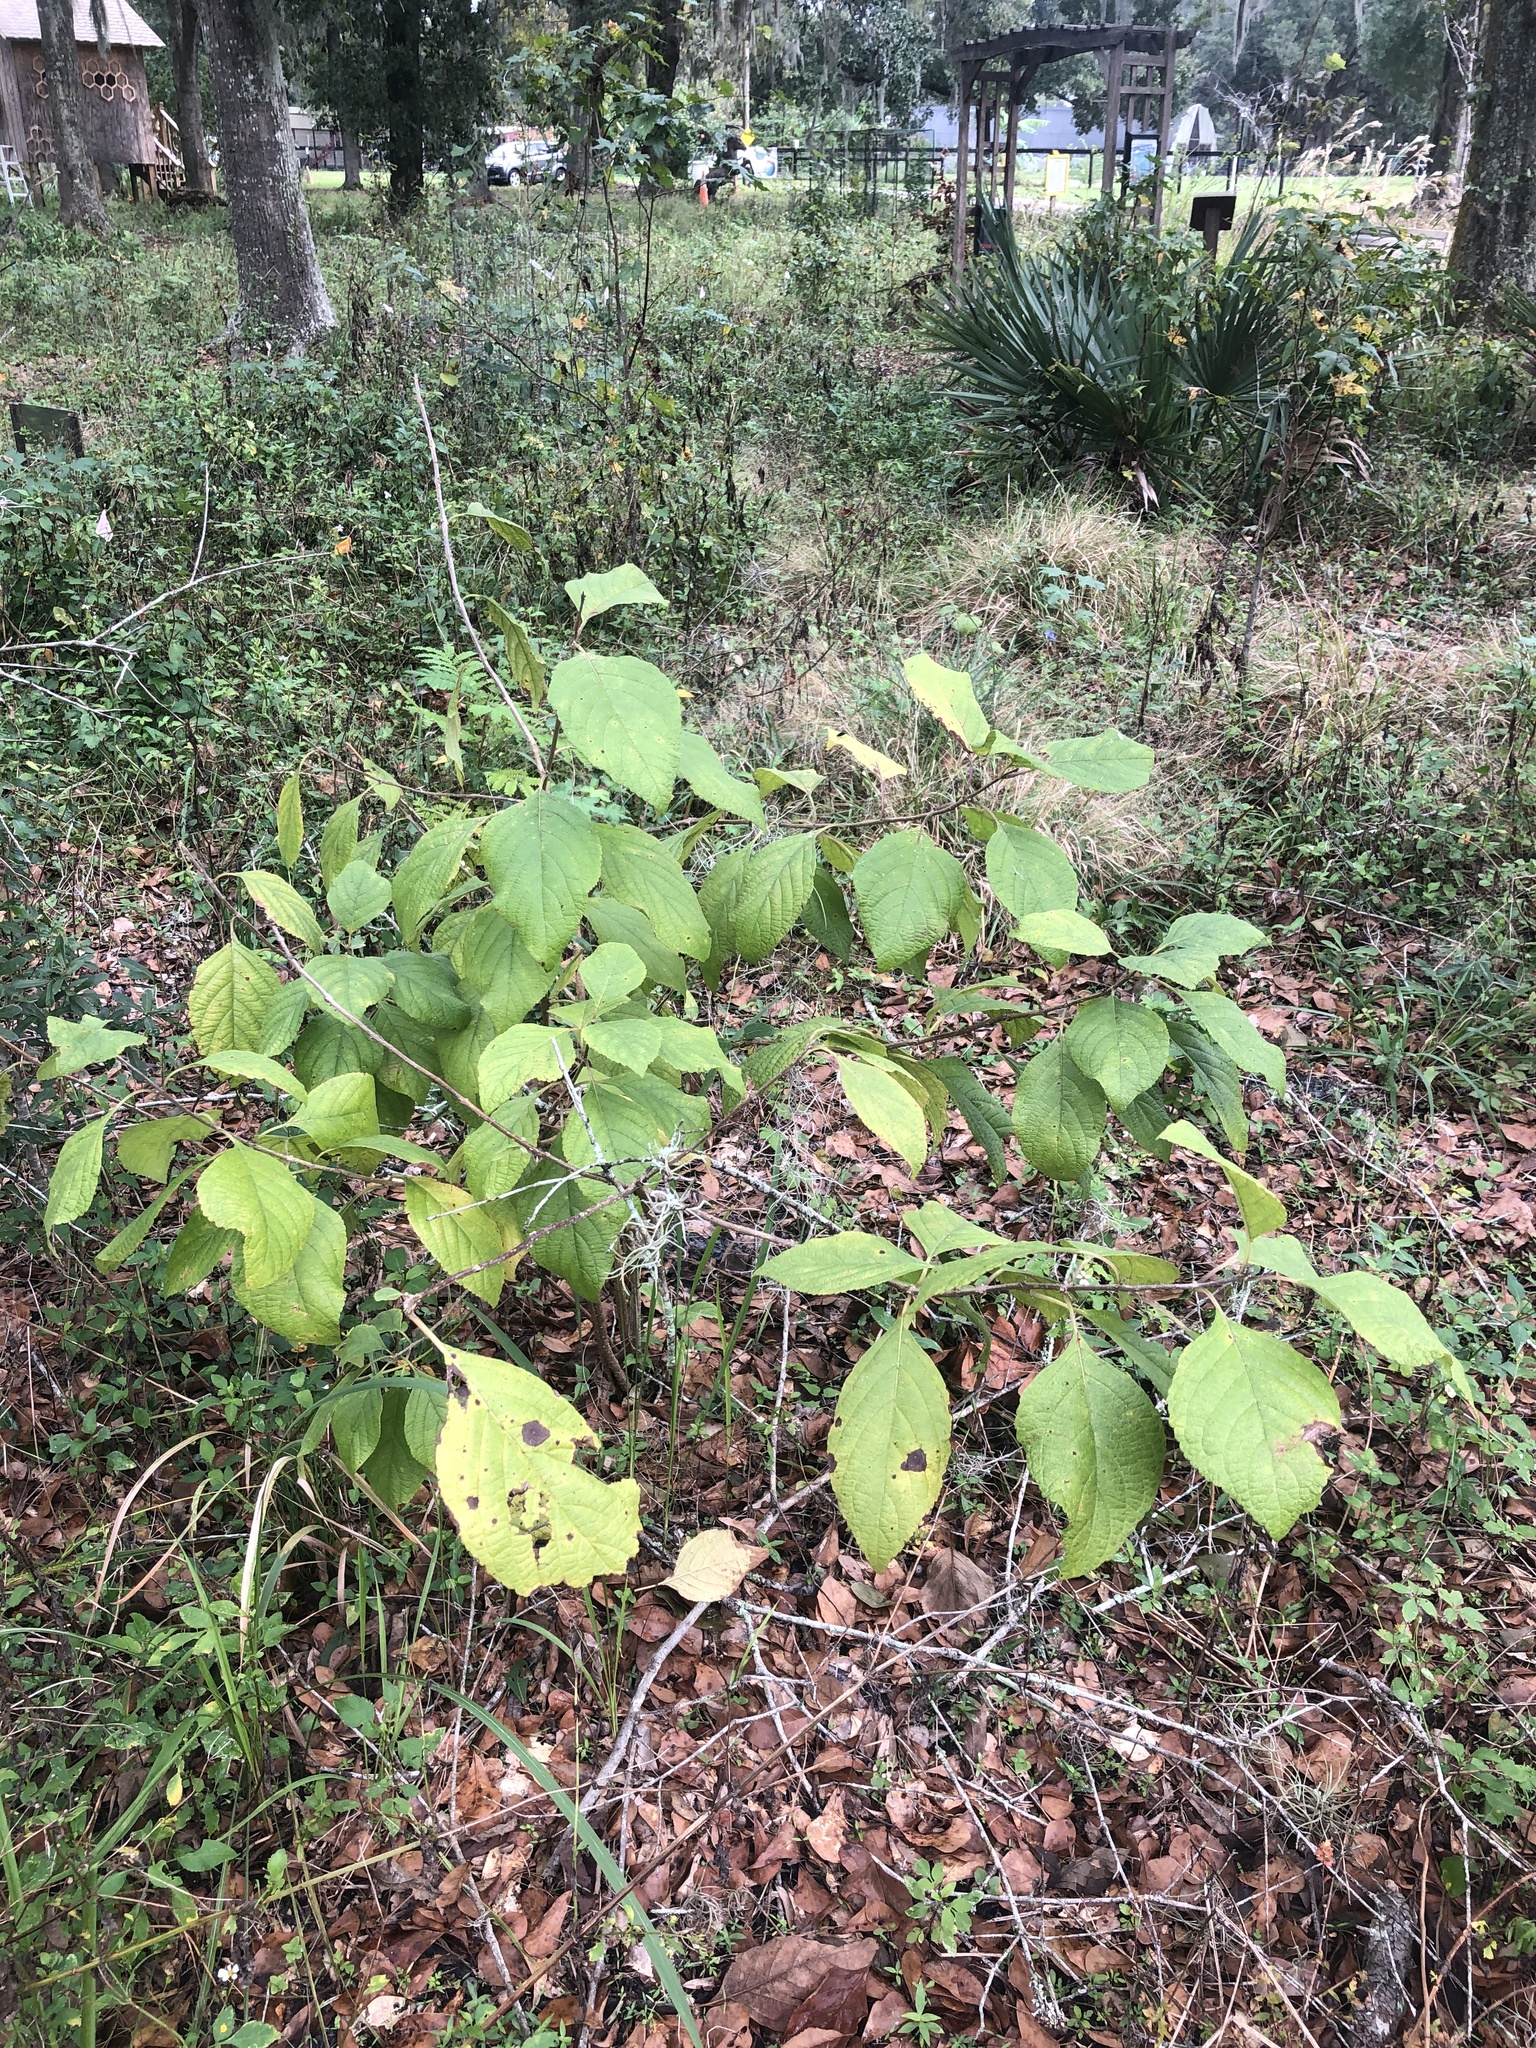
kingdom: Plantae
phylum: Tracheophyta
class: Magnoliopsida
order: Lamiales
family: Lamiaceae
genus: Callicarpa
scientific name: Callicarpa americana
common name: American beautyberry
